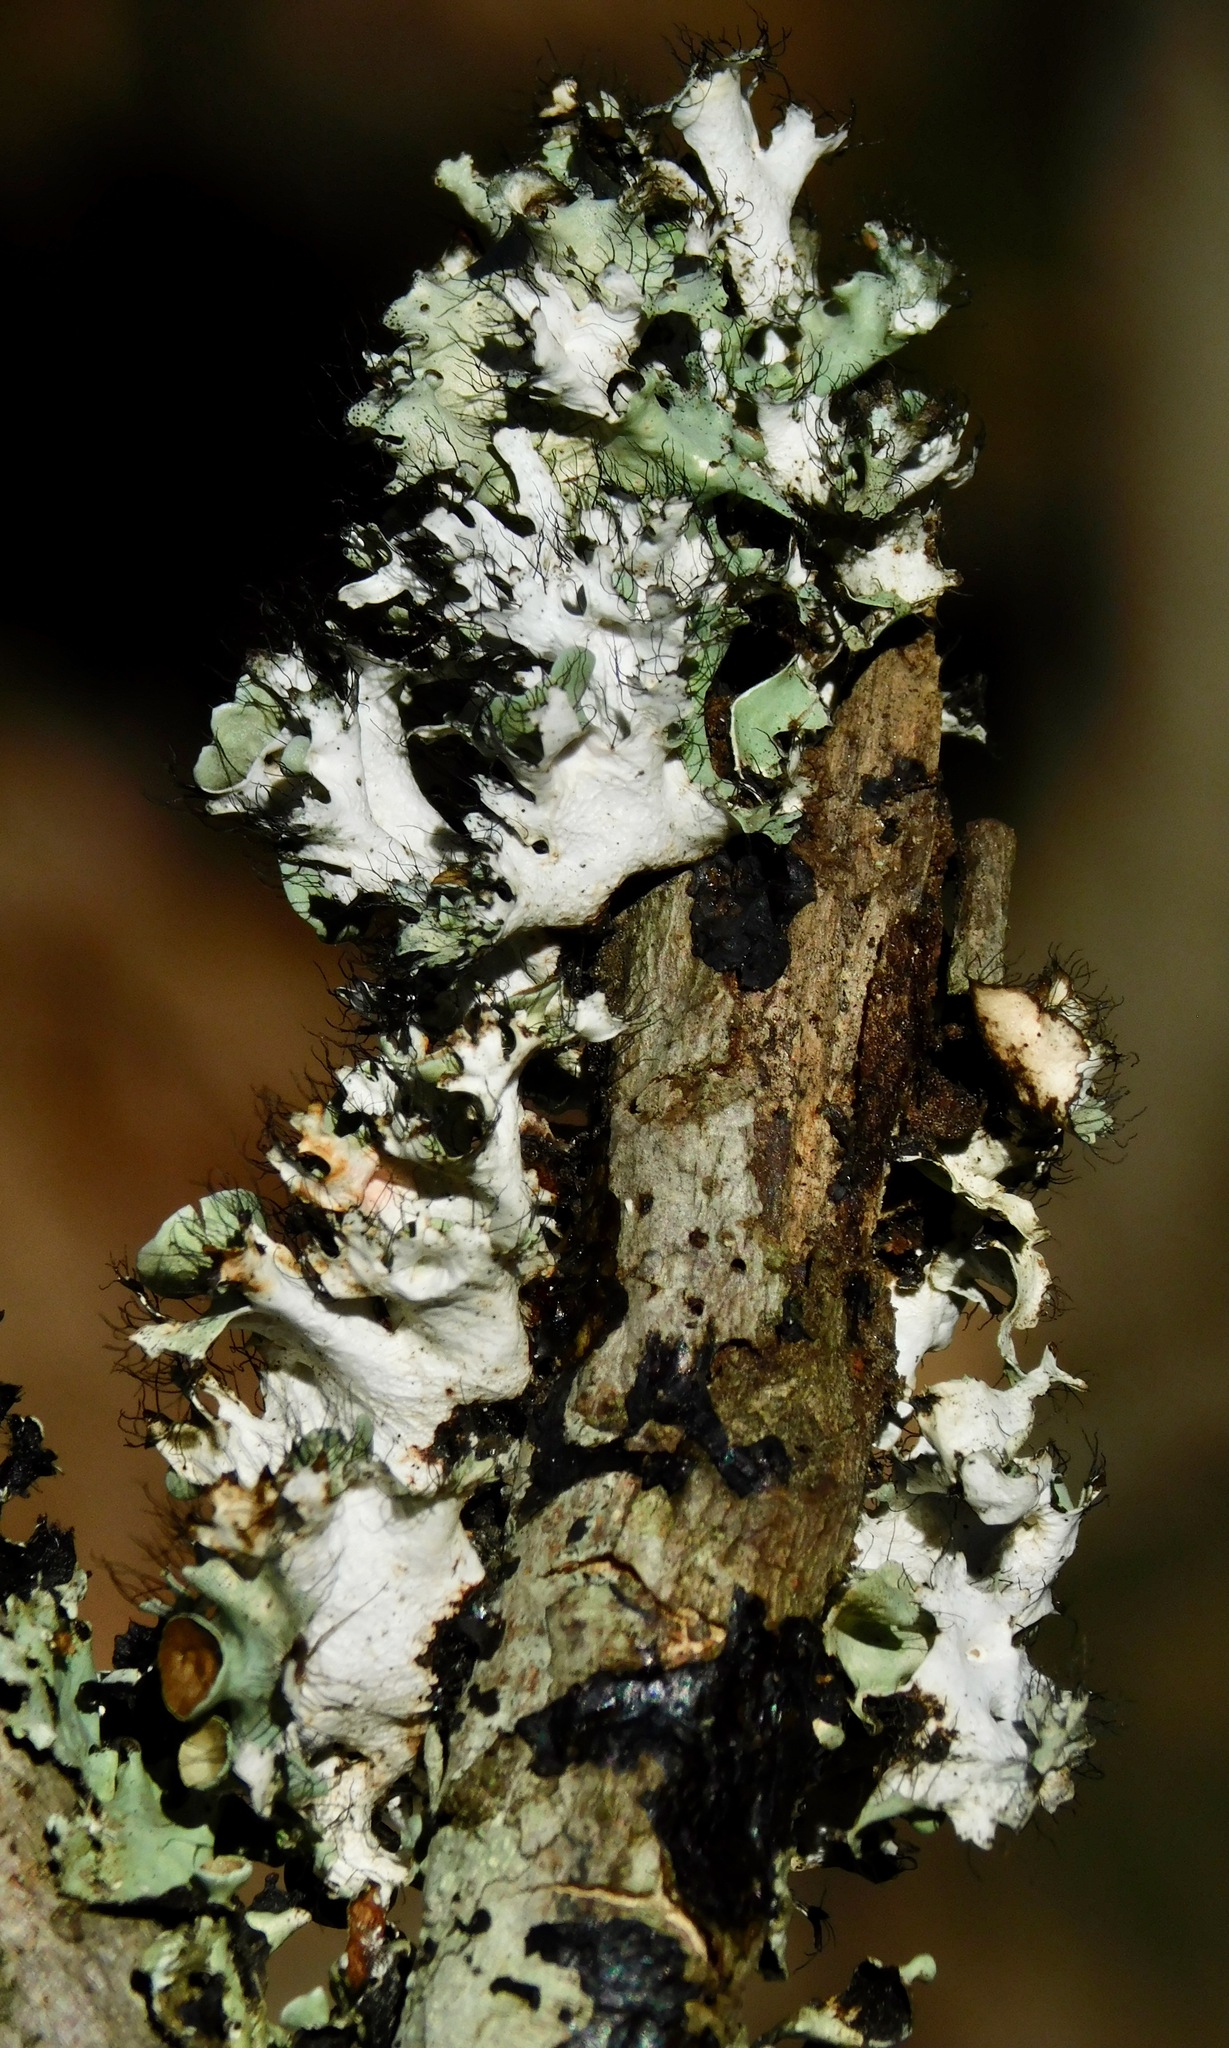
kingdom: Fungi
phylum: Ascomycota
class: Lecanoromycetes
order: Lecanorales
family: Parmeliaceae
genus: Parmotrema
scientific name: Parmotrema subrigidum
